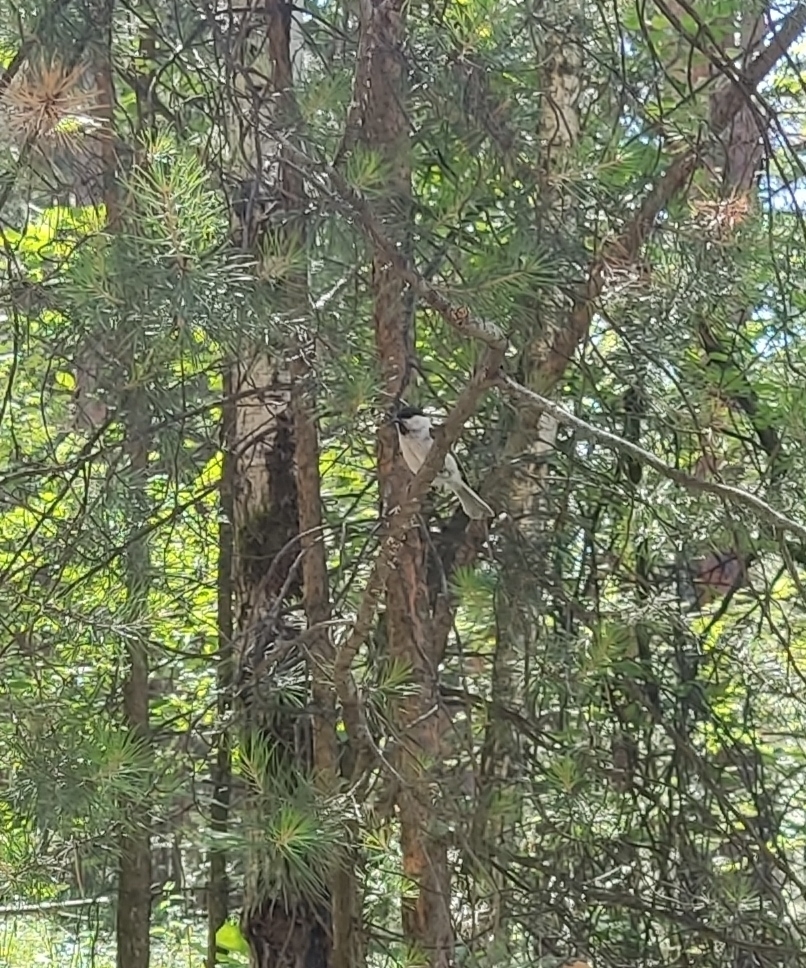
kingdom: Animalia
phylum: Chordata
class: Aves
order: Passeriformes
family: Paridae
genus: Poecile
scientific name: Poecile montanus
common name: Willow tit
